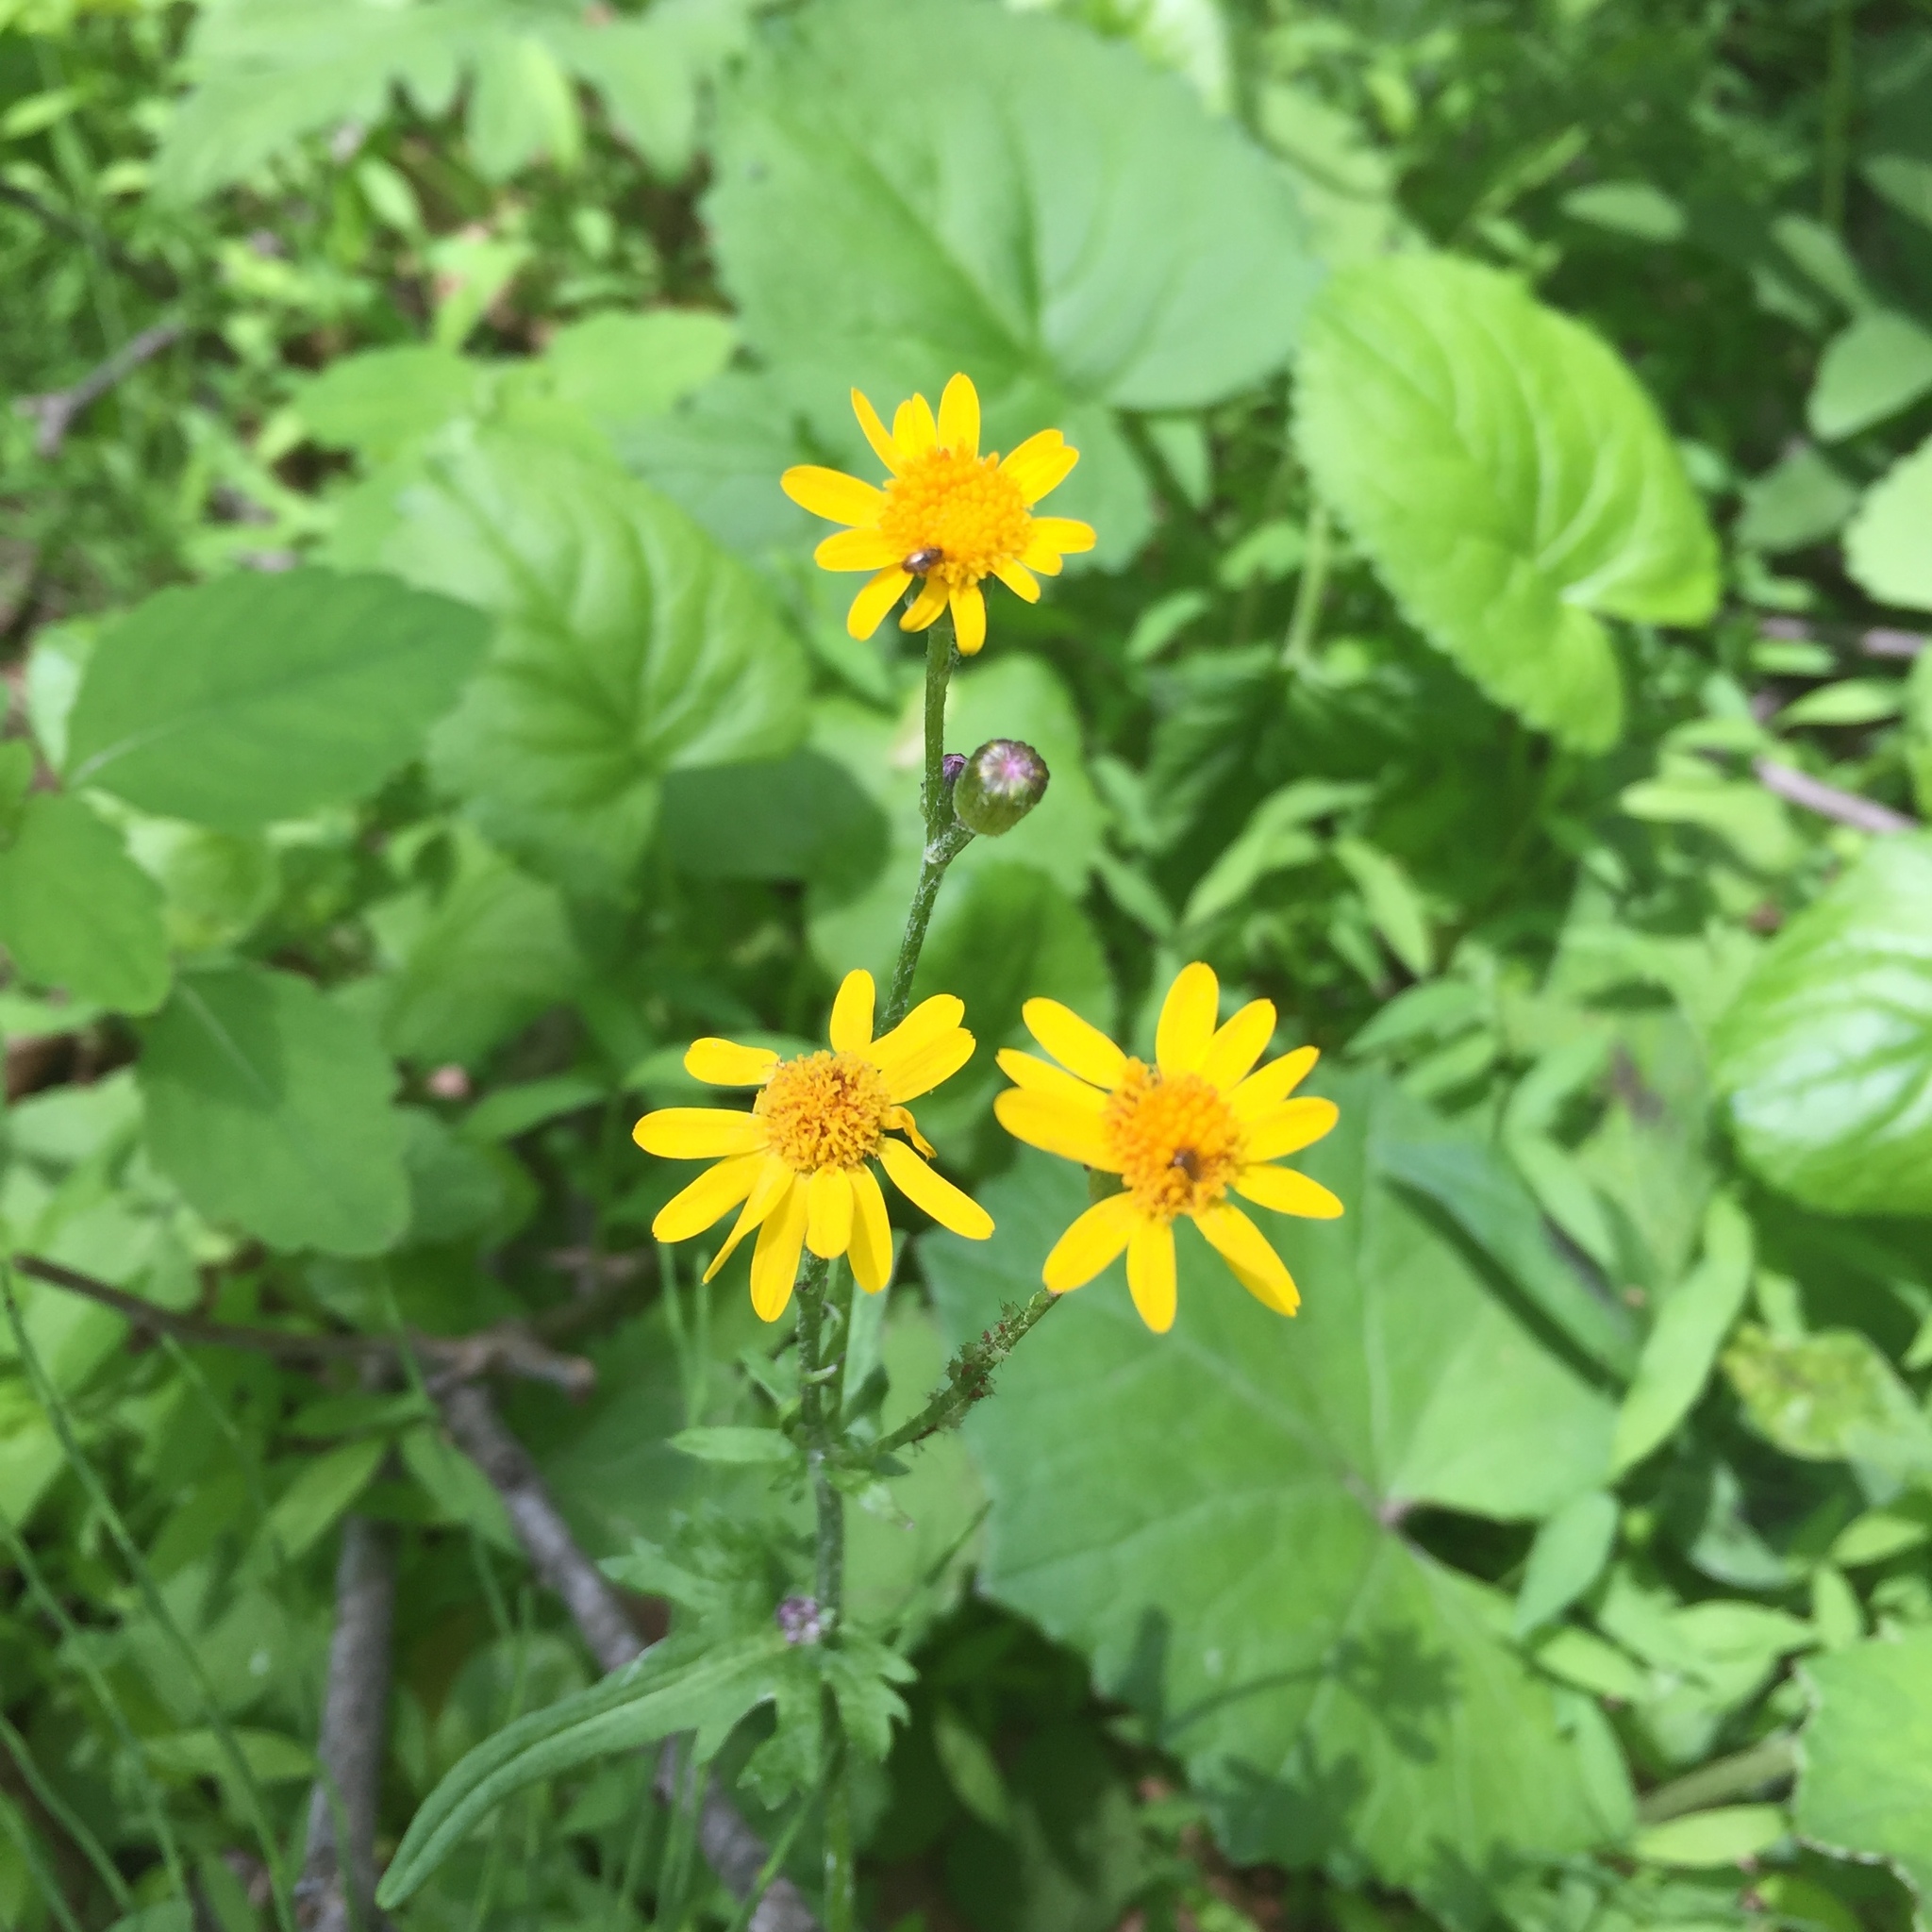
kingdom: Plantae
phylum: Tracheophyta
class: Magnoliopsida
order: Asterales
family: Asteraceae
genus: Packera
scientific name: Packera aurea
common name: Golden groundsel
